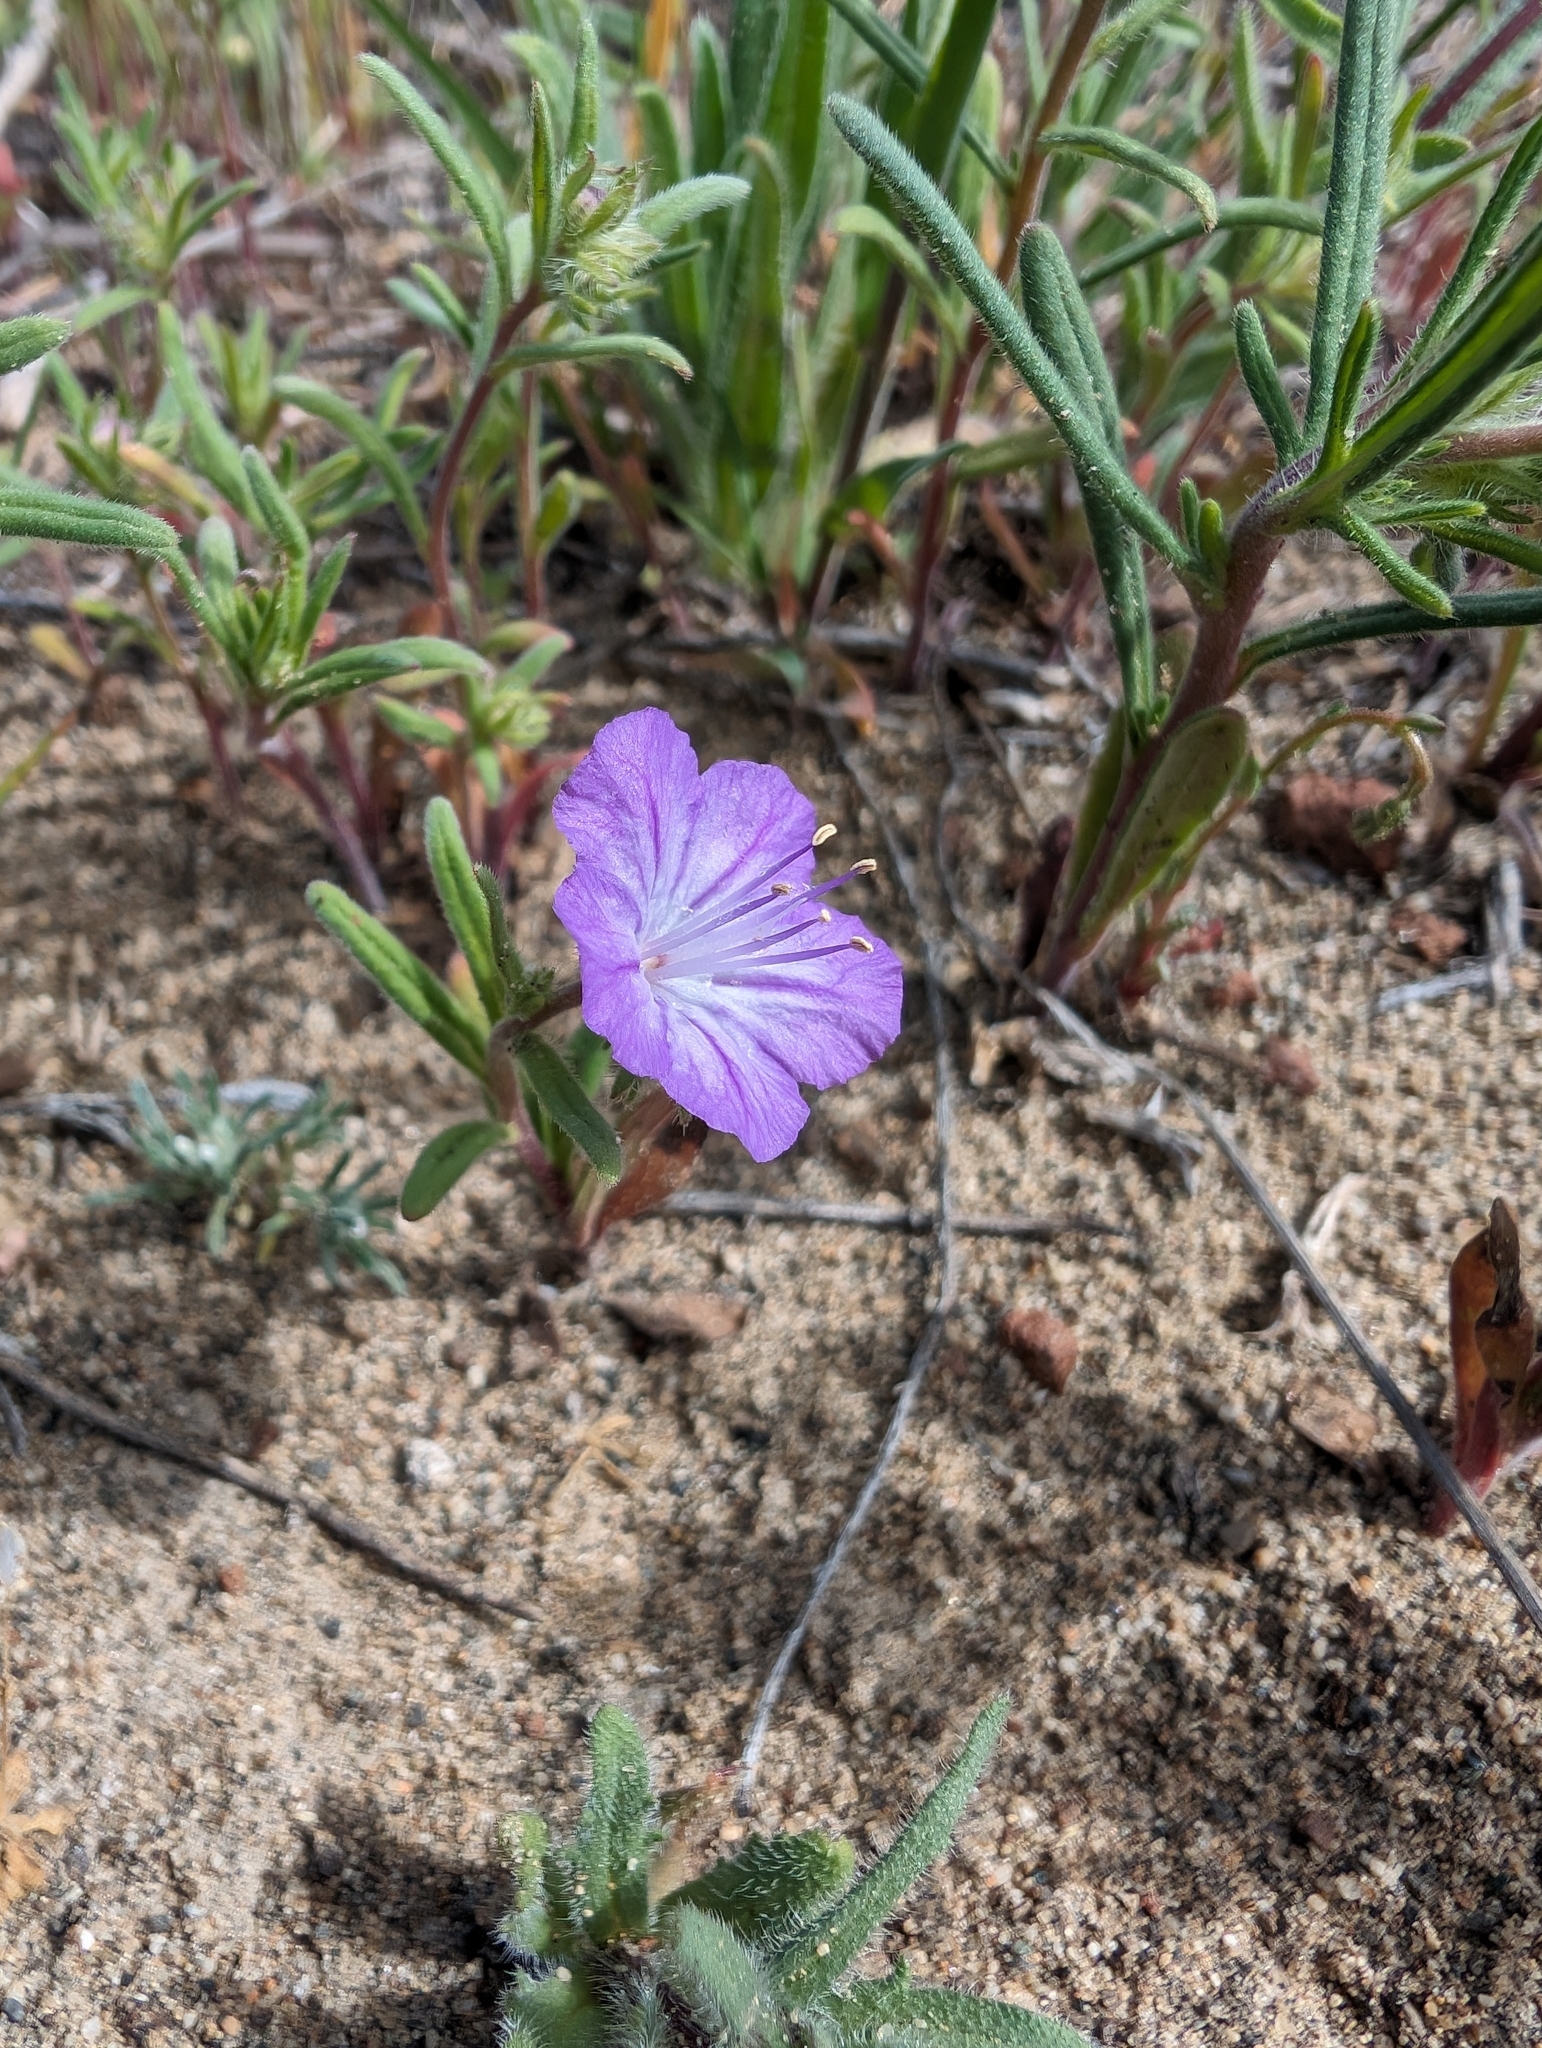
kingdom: Plantae
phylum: Tracheophyta
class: Magnoliopsida
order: Boraginales
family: Hydrophyllaceae
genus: Phacelia
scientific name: Phacelia linearis
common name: Linear-leaved phacelia
